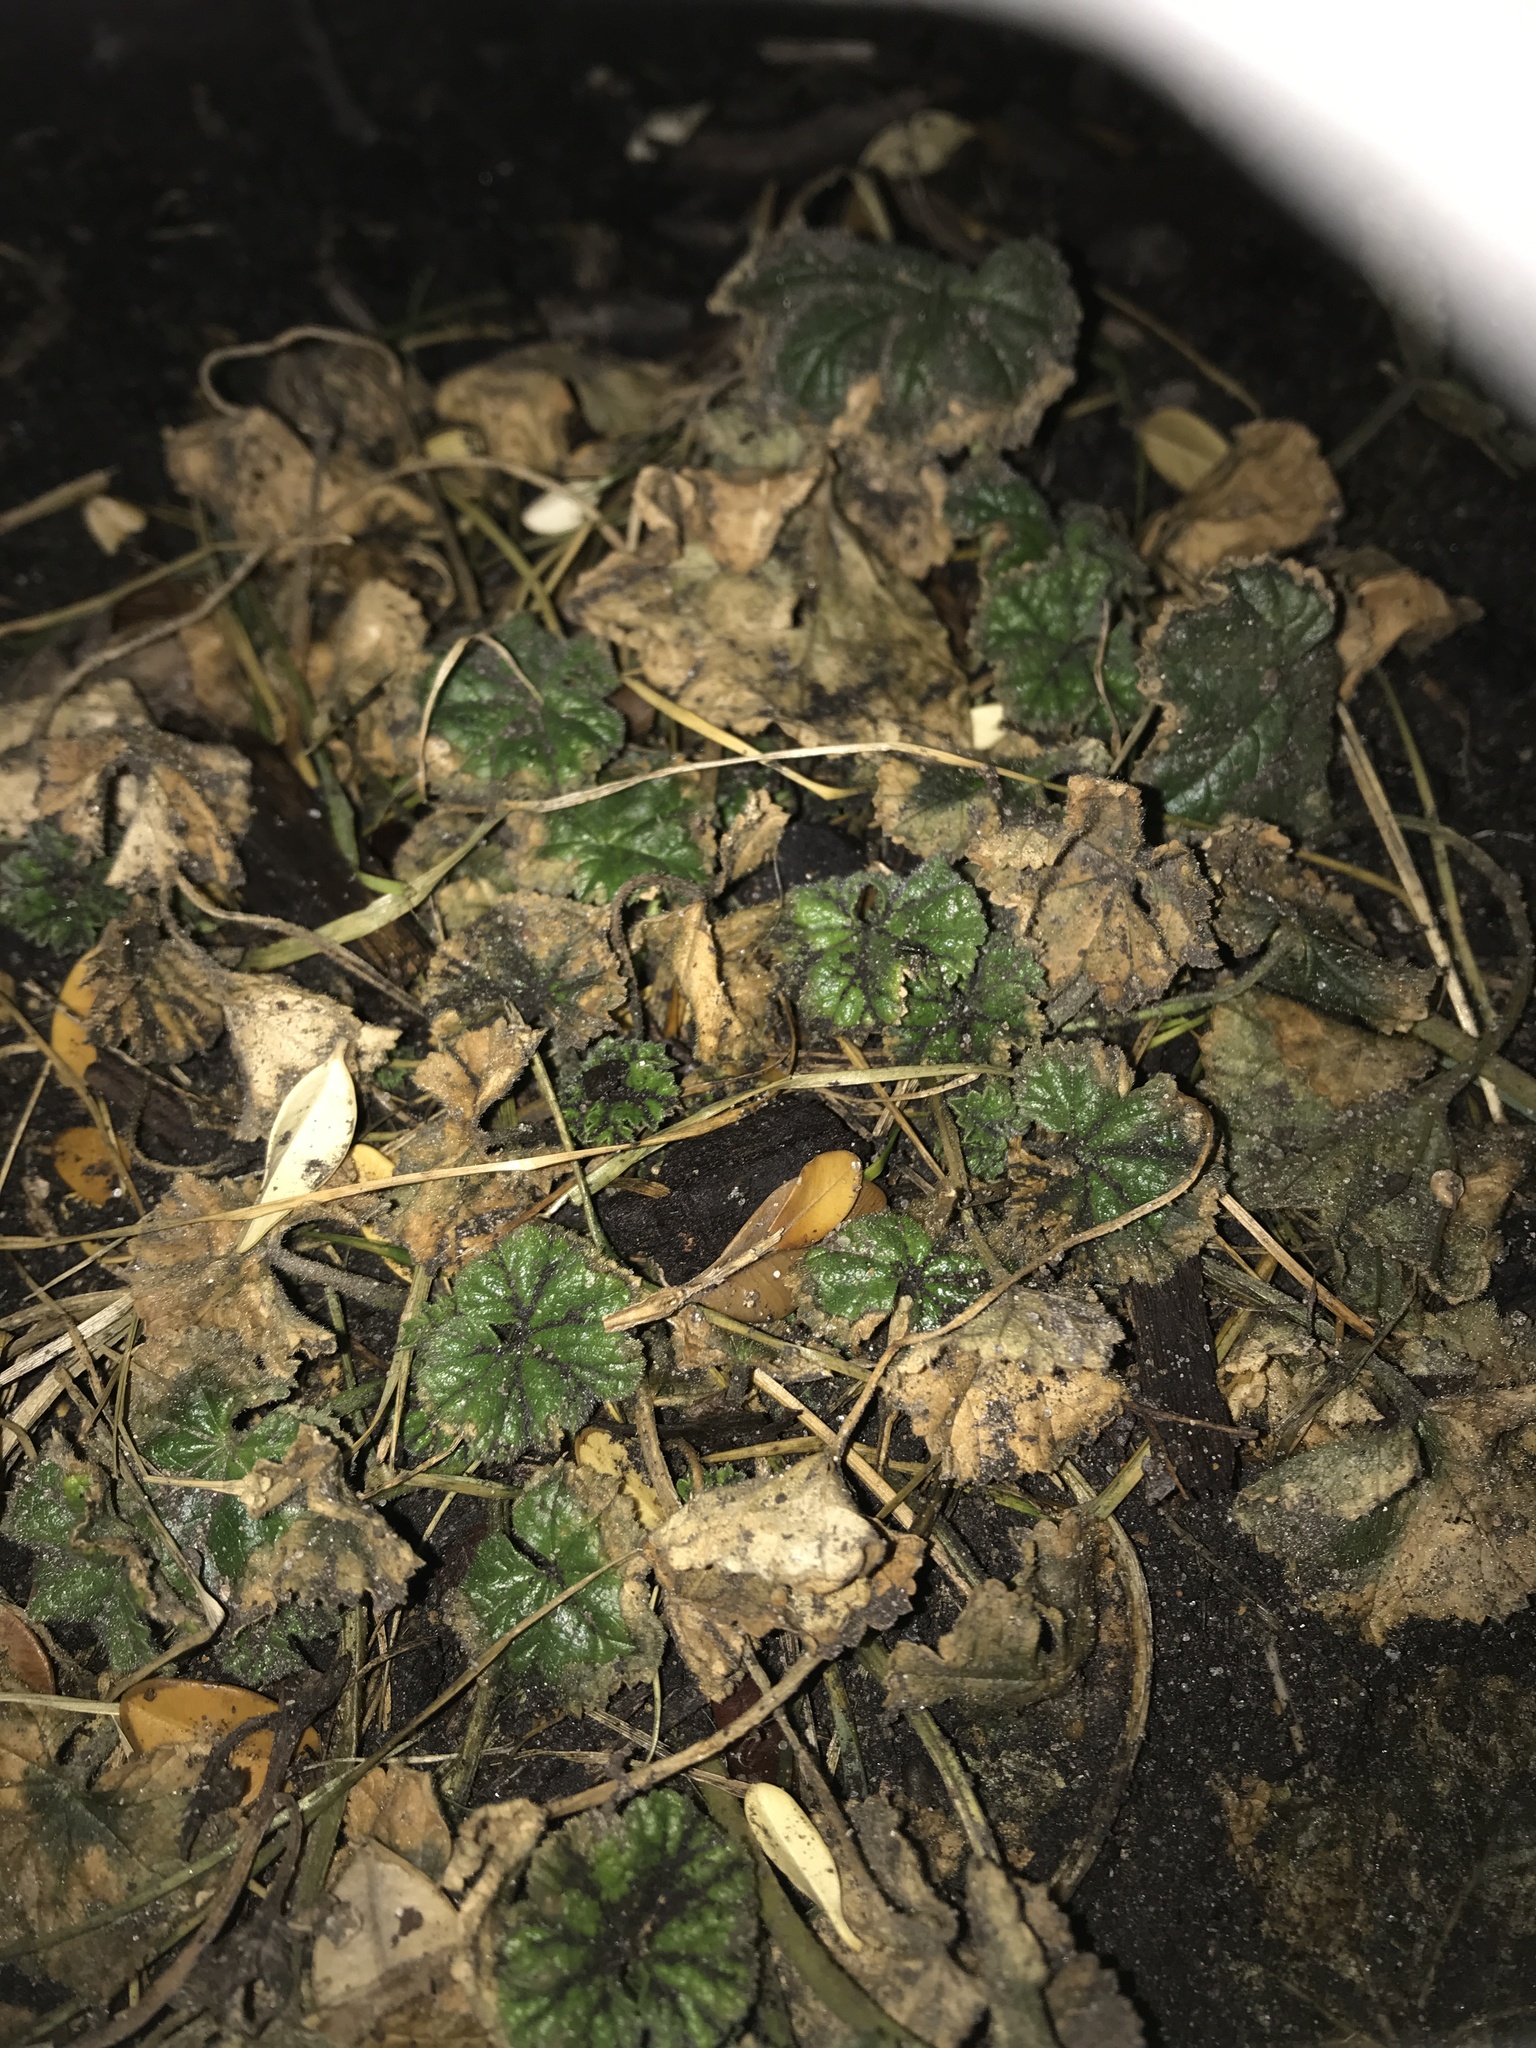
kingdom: Plantae
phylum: Tracheophyta
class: Magnoliopsida
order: Malvales
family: Malvaceae
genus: Malva
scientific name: Malva neglecta
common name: Common mallow
